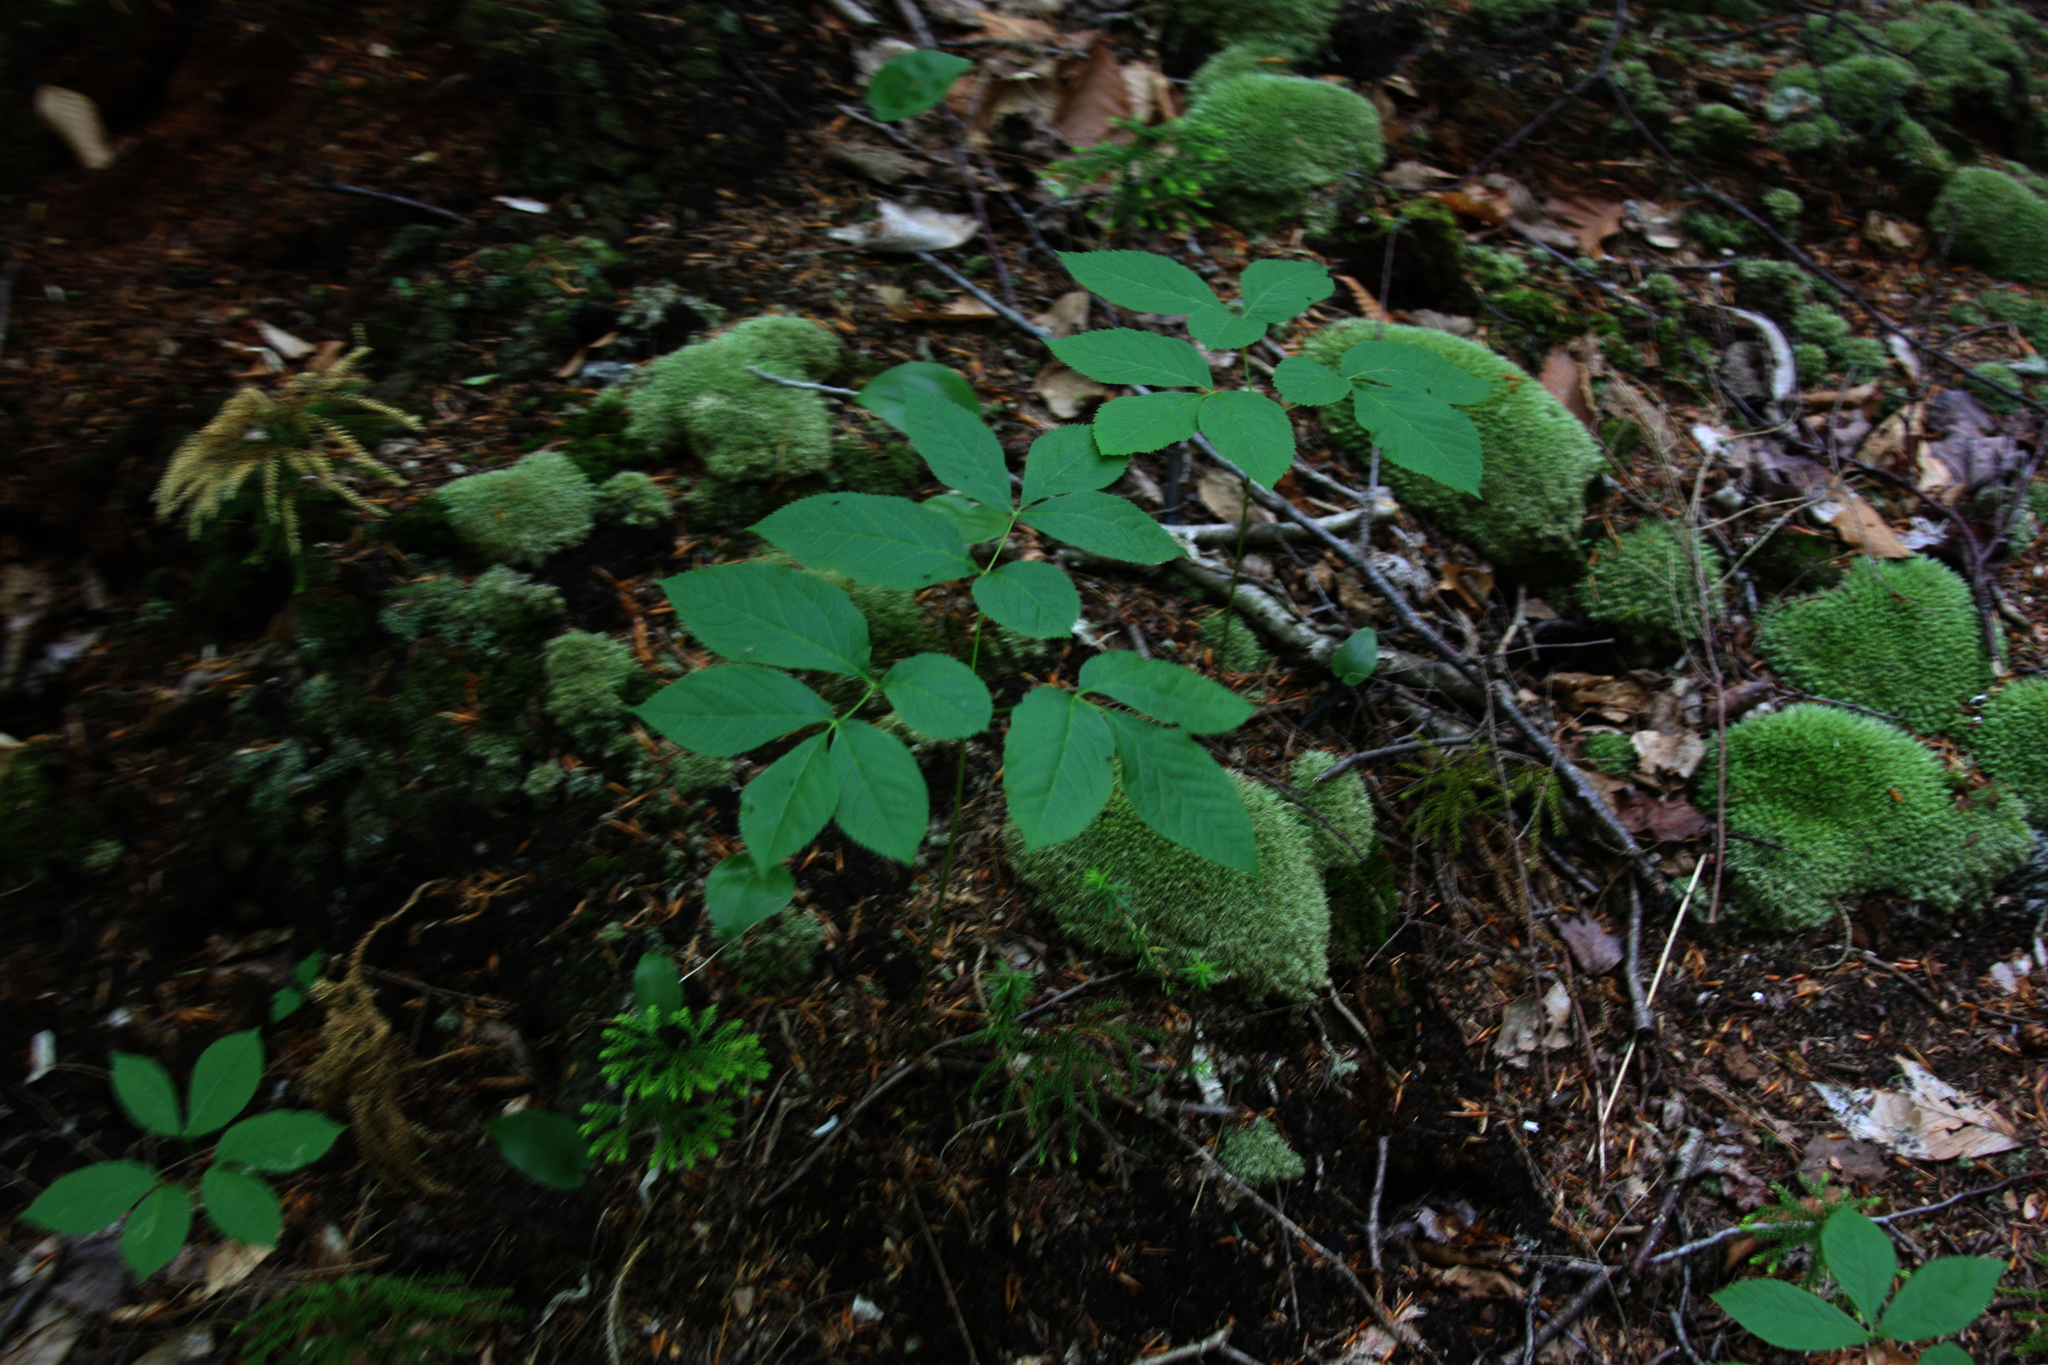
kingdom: Plantae
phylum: Tracheophyta
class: Magnoliopsida
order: Apiales
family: Araliaceae
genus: Aralia
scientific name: Aralia nudicaulis
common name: Wild sarsaparilla
